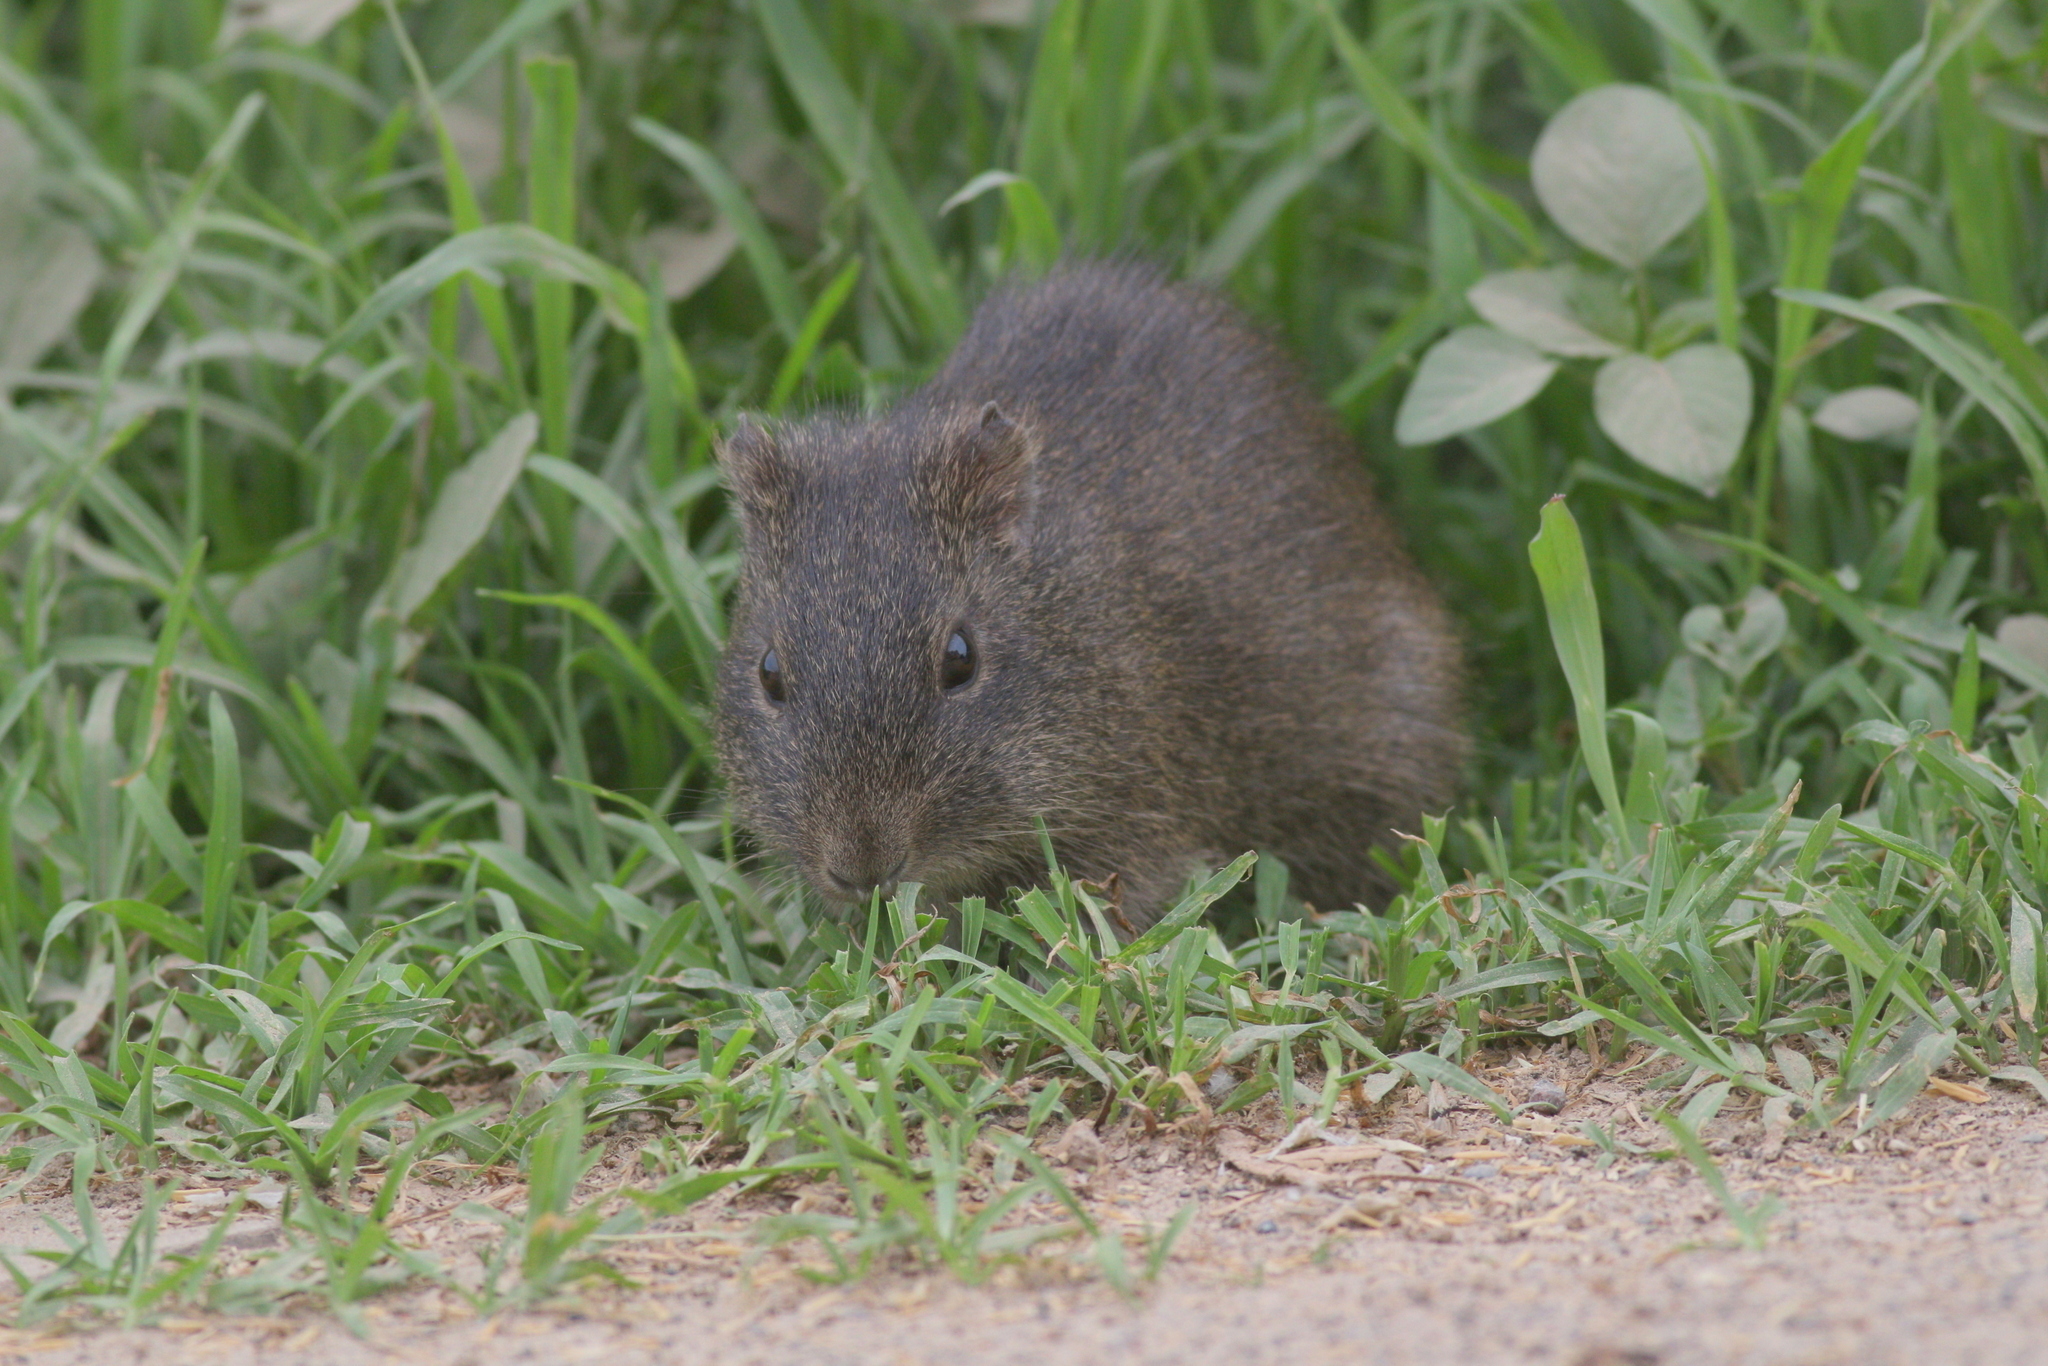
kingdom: Animalia
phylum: Chordata
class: Mammalia
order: Rodentia
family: Caviidae
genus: Cavia
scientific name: Cavia aperea
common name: Brazilian guinea pig
